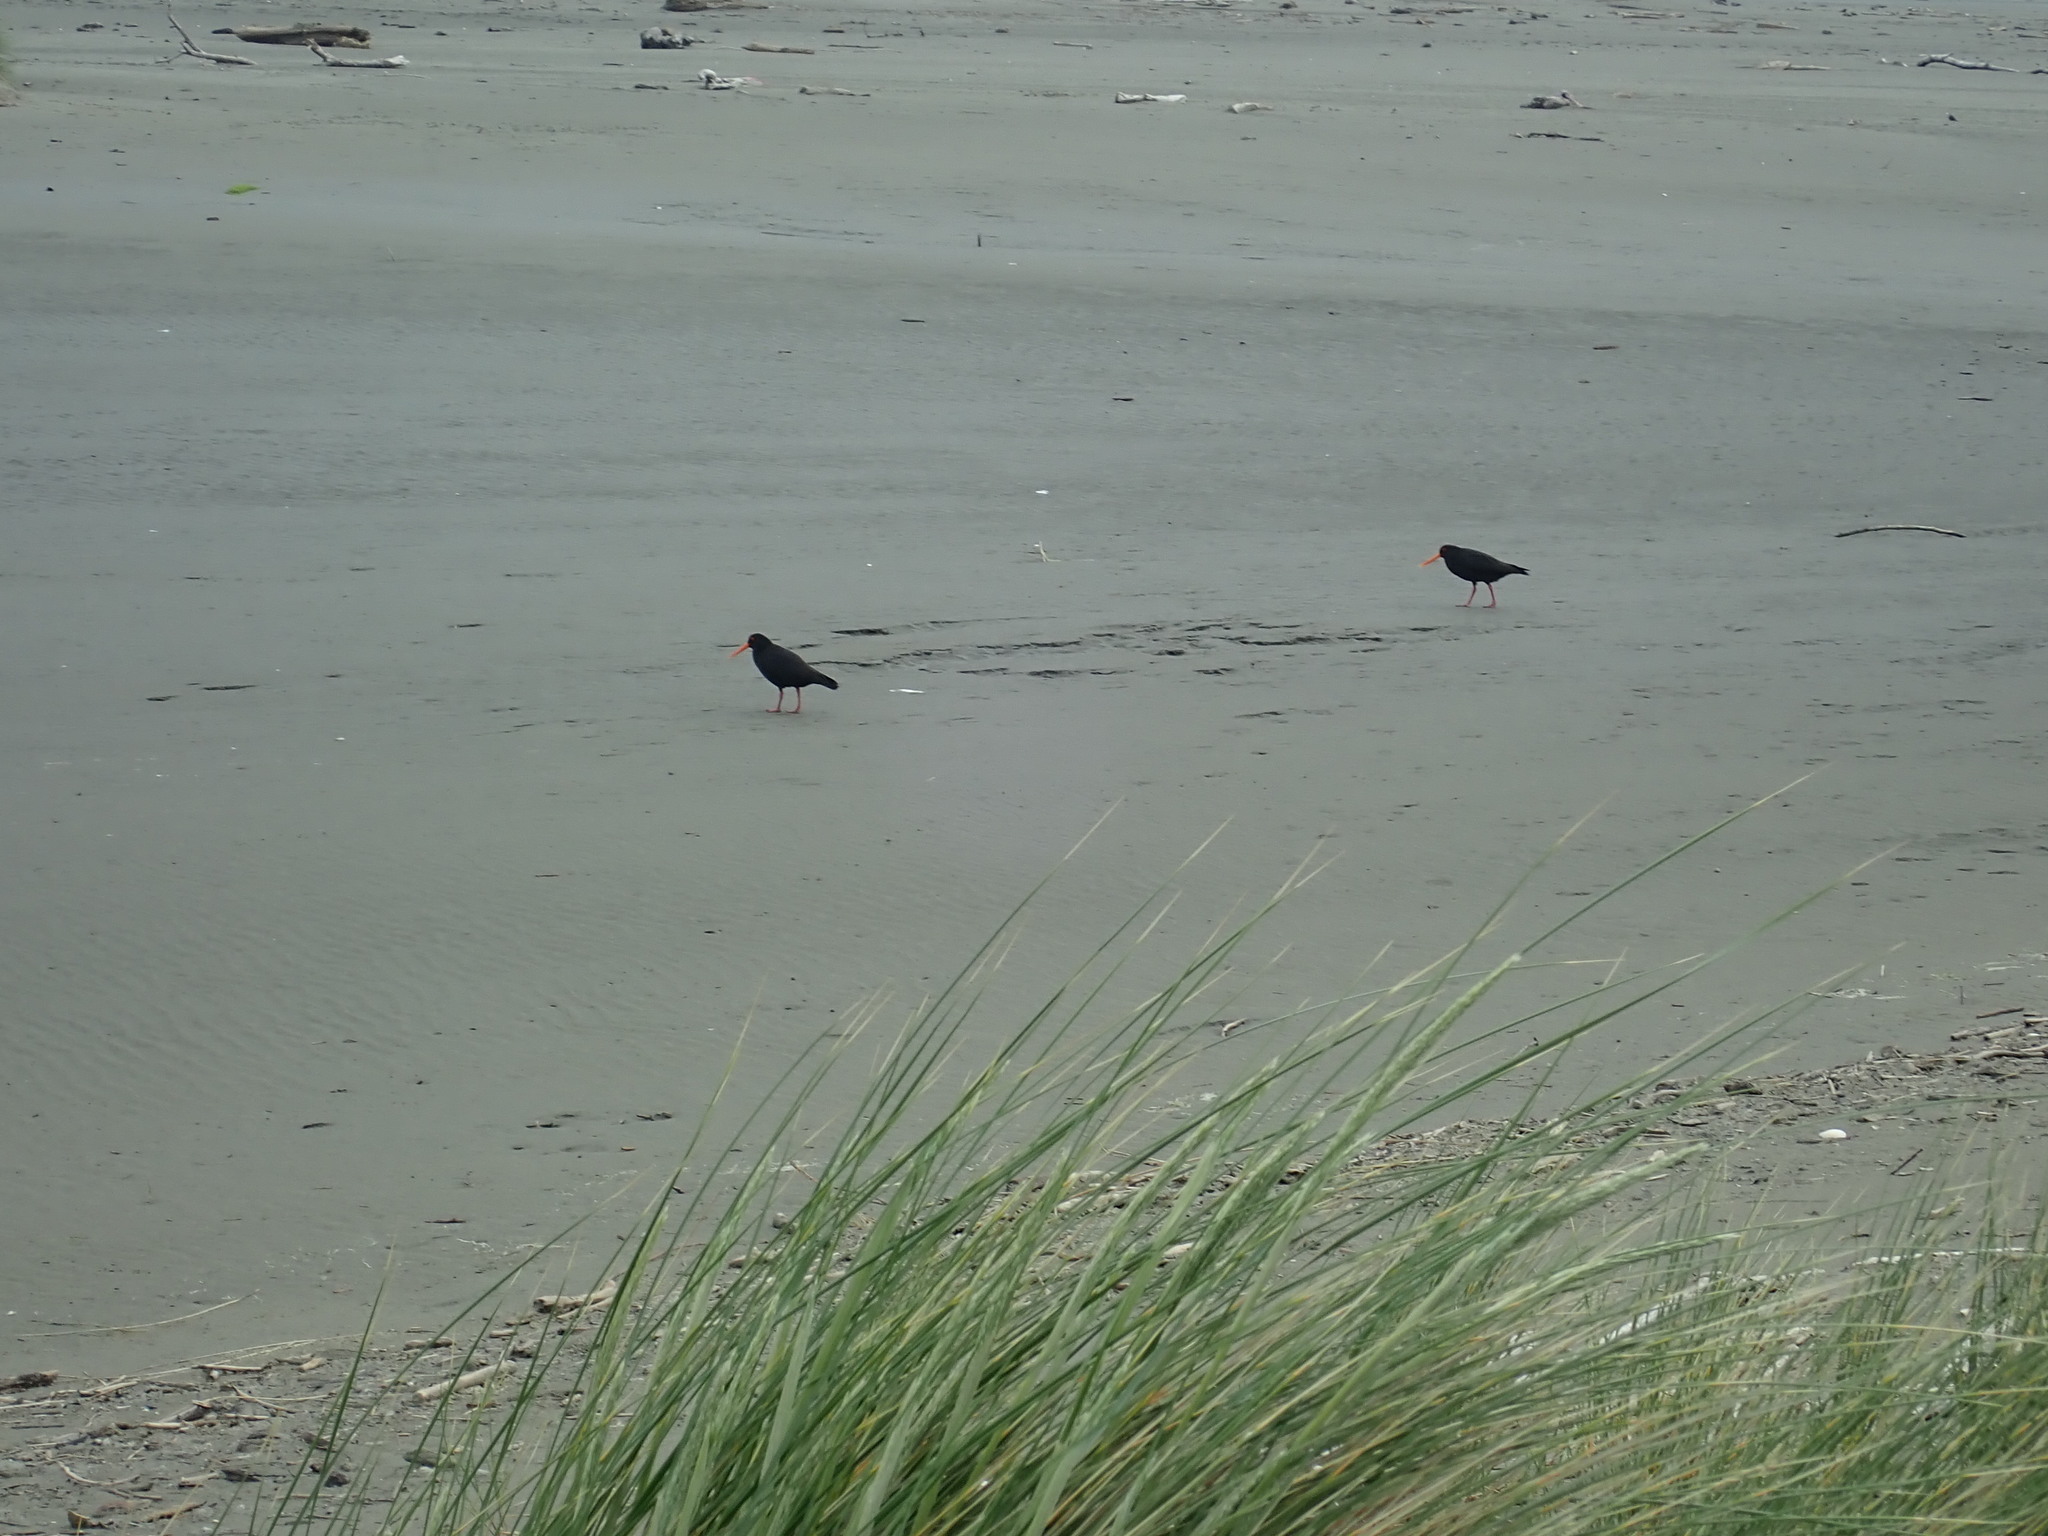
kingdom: Animalia
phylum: Chordata
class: Aves
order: Charadriiformes
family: Haematopodidae
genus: Haematopus
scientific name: Haematopus unicolor
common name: Variable oystercatcher
